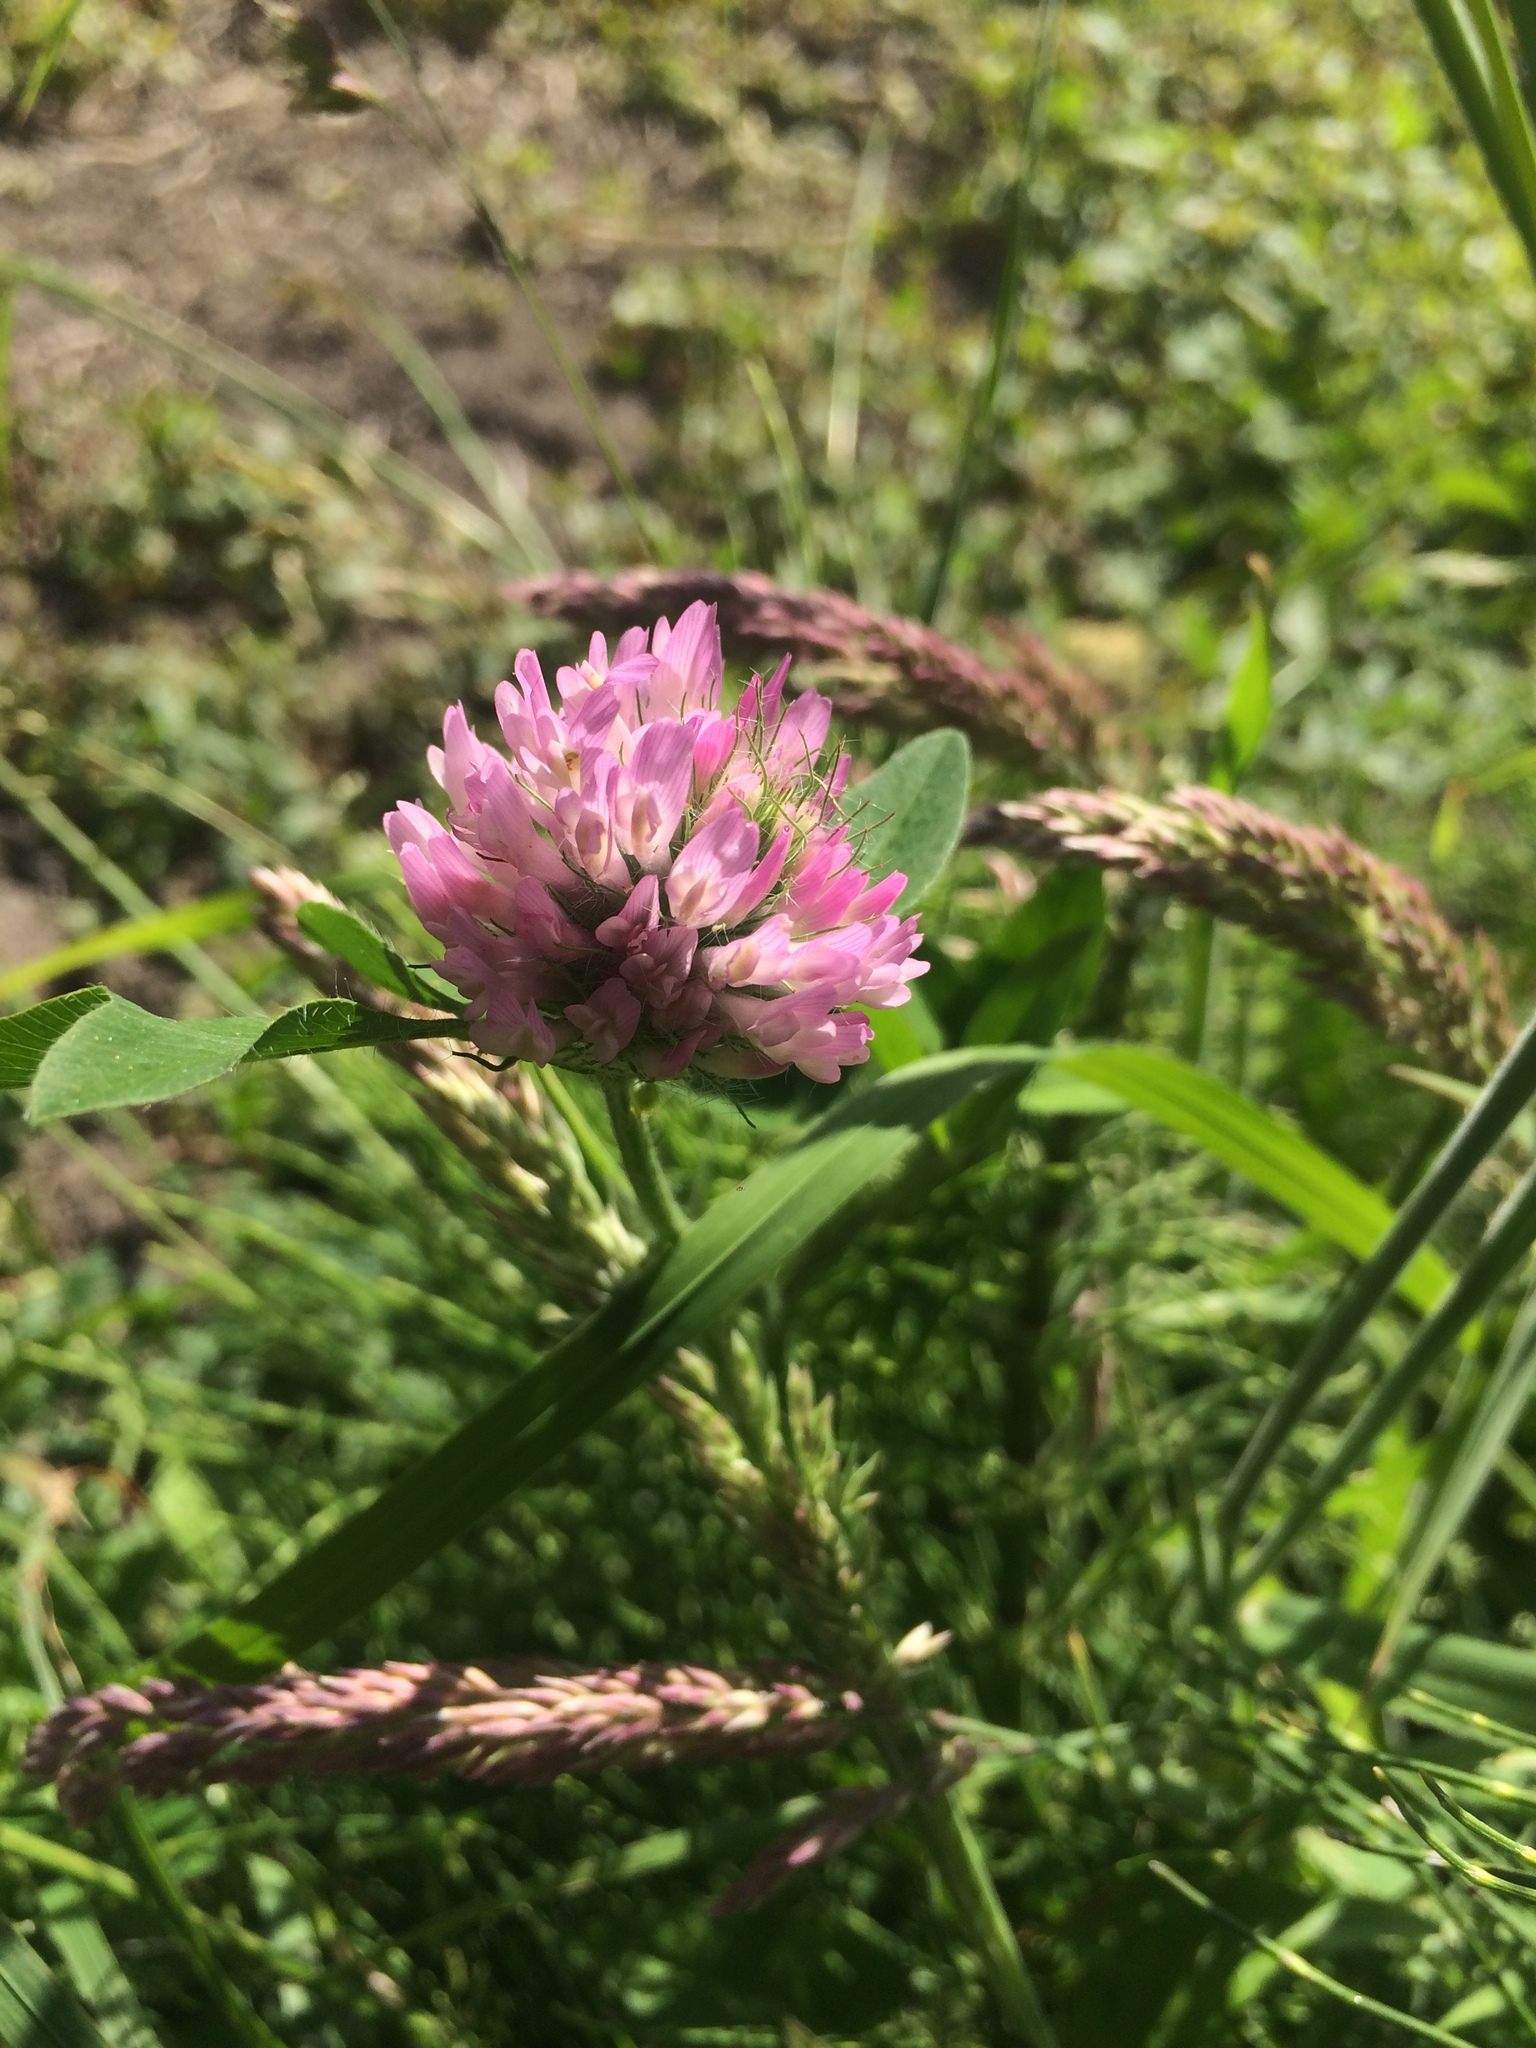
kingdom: Plantae
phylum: Tracheophyta
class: Magnoliopsida
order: Fabales
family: Fabaceae
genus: Trifolium
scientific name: Trifolium pratense
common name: Red clover
